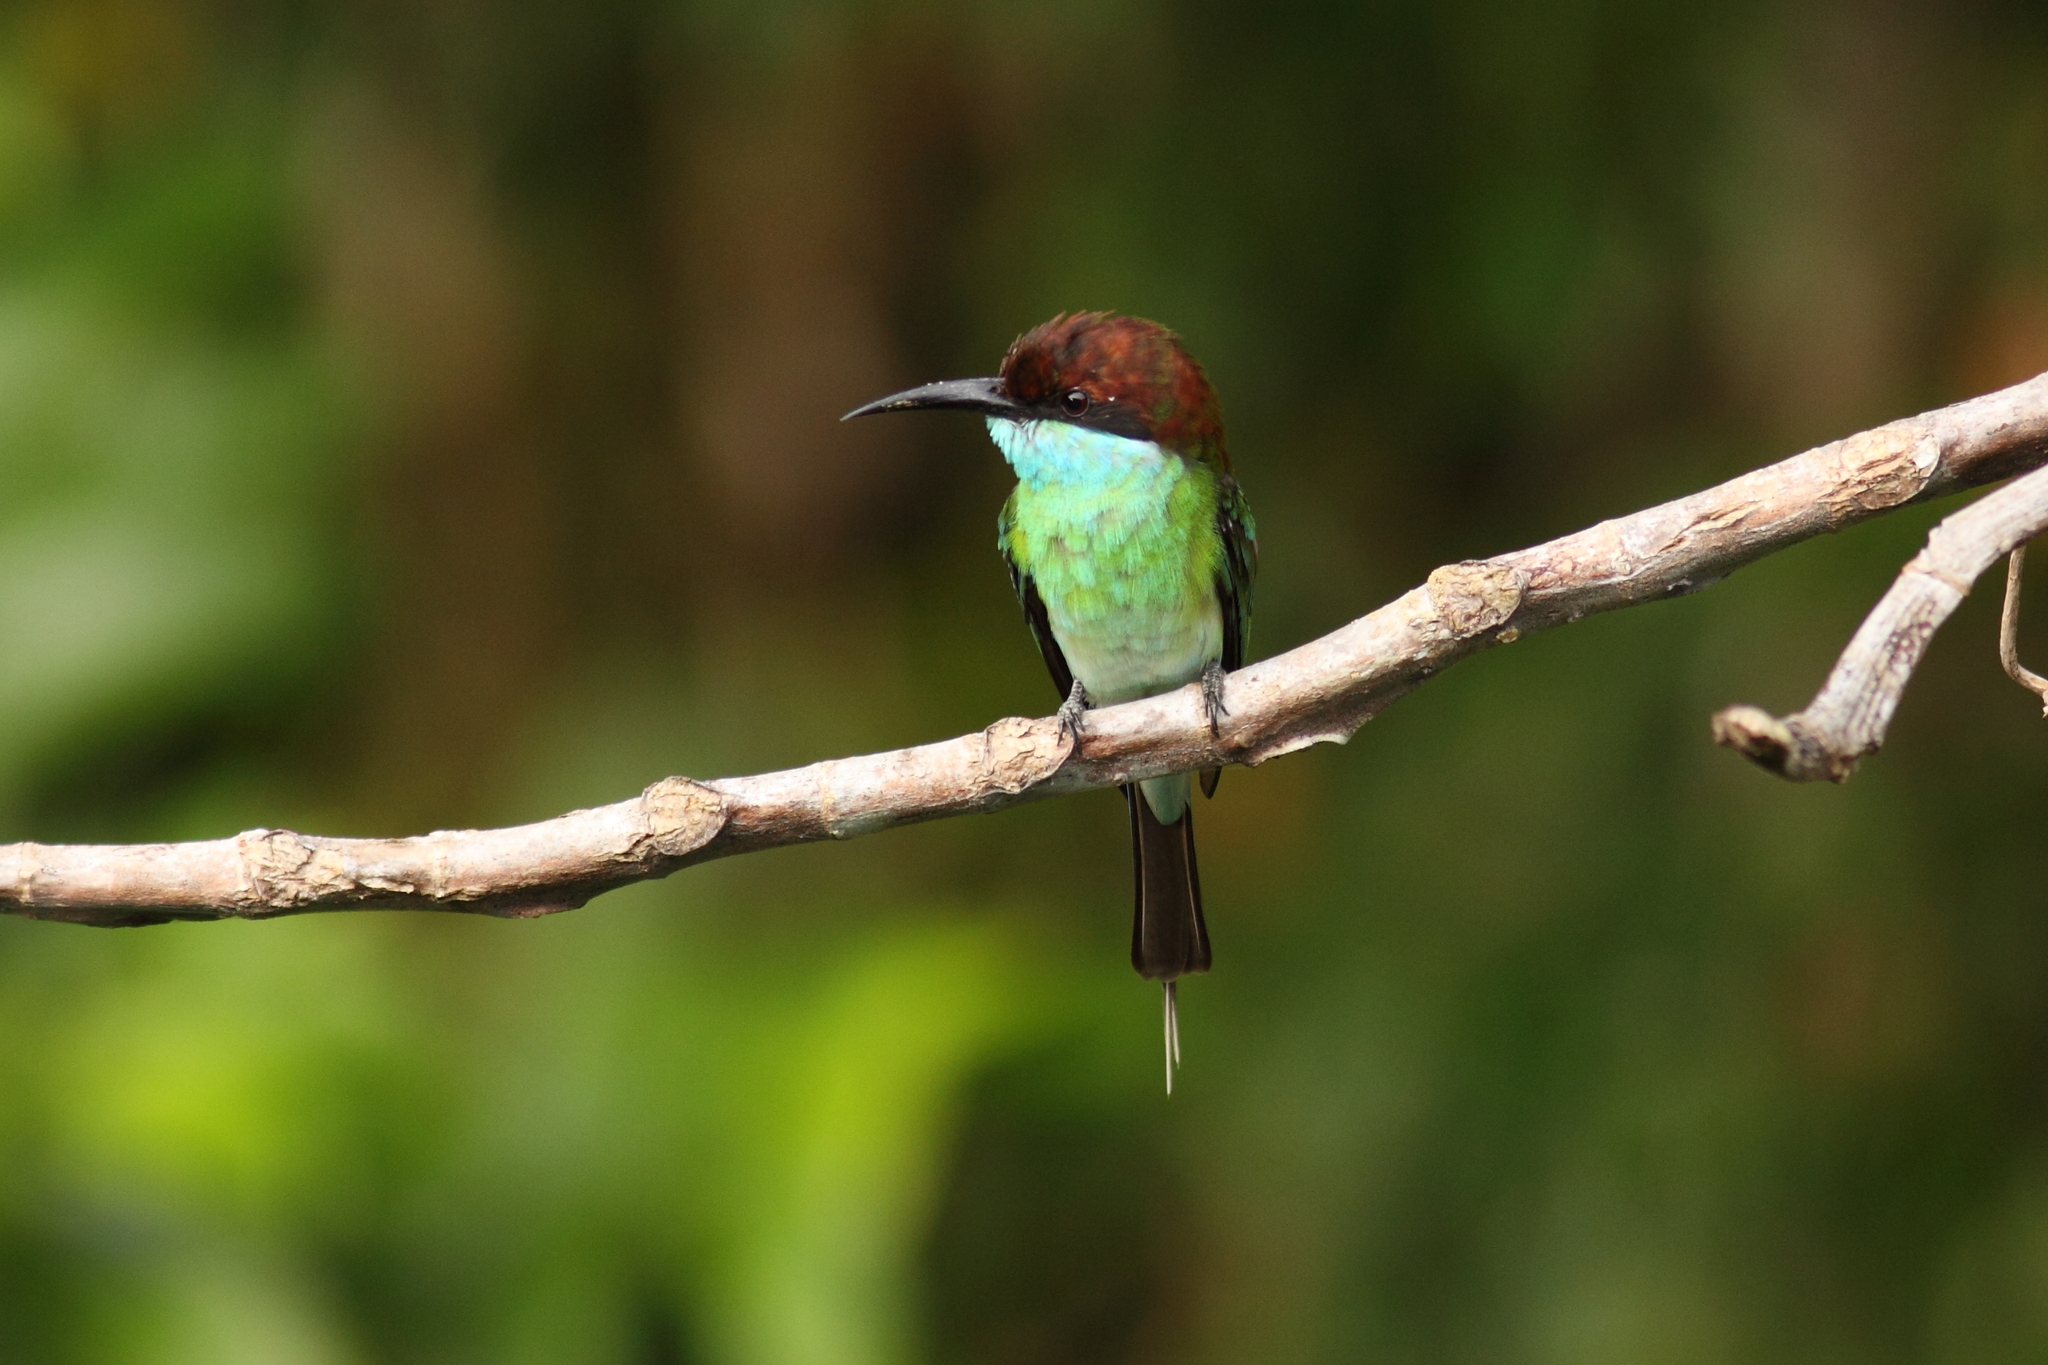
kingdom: Animalia
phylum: Chordata
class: Aves
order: Coraciiformes
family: Meropidae
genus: Merops
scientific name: Merops viridis
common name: Blue-throated bee-eater
